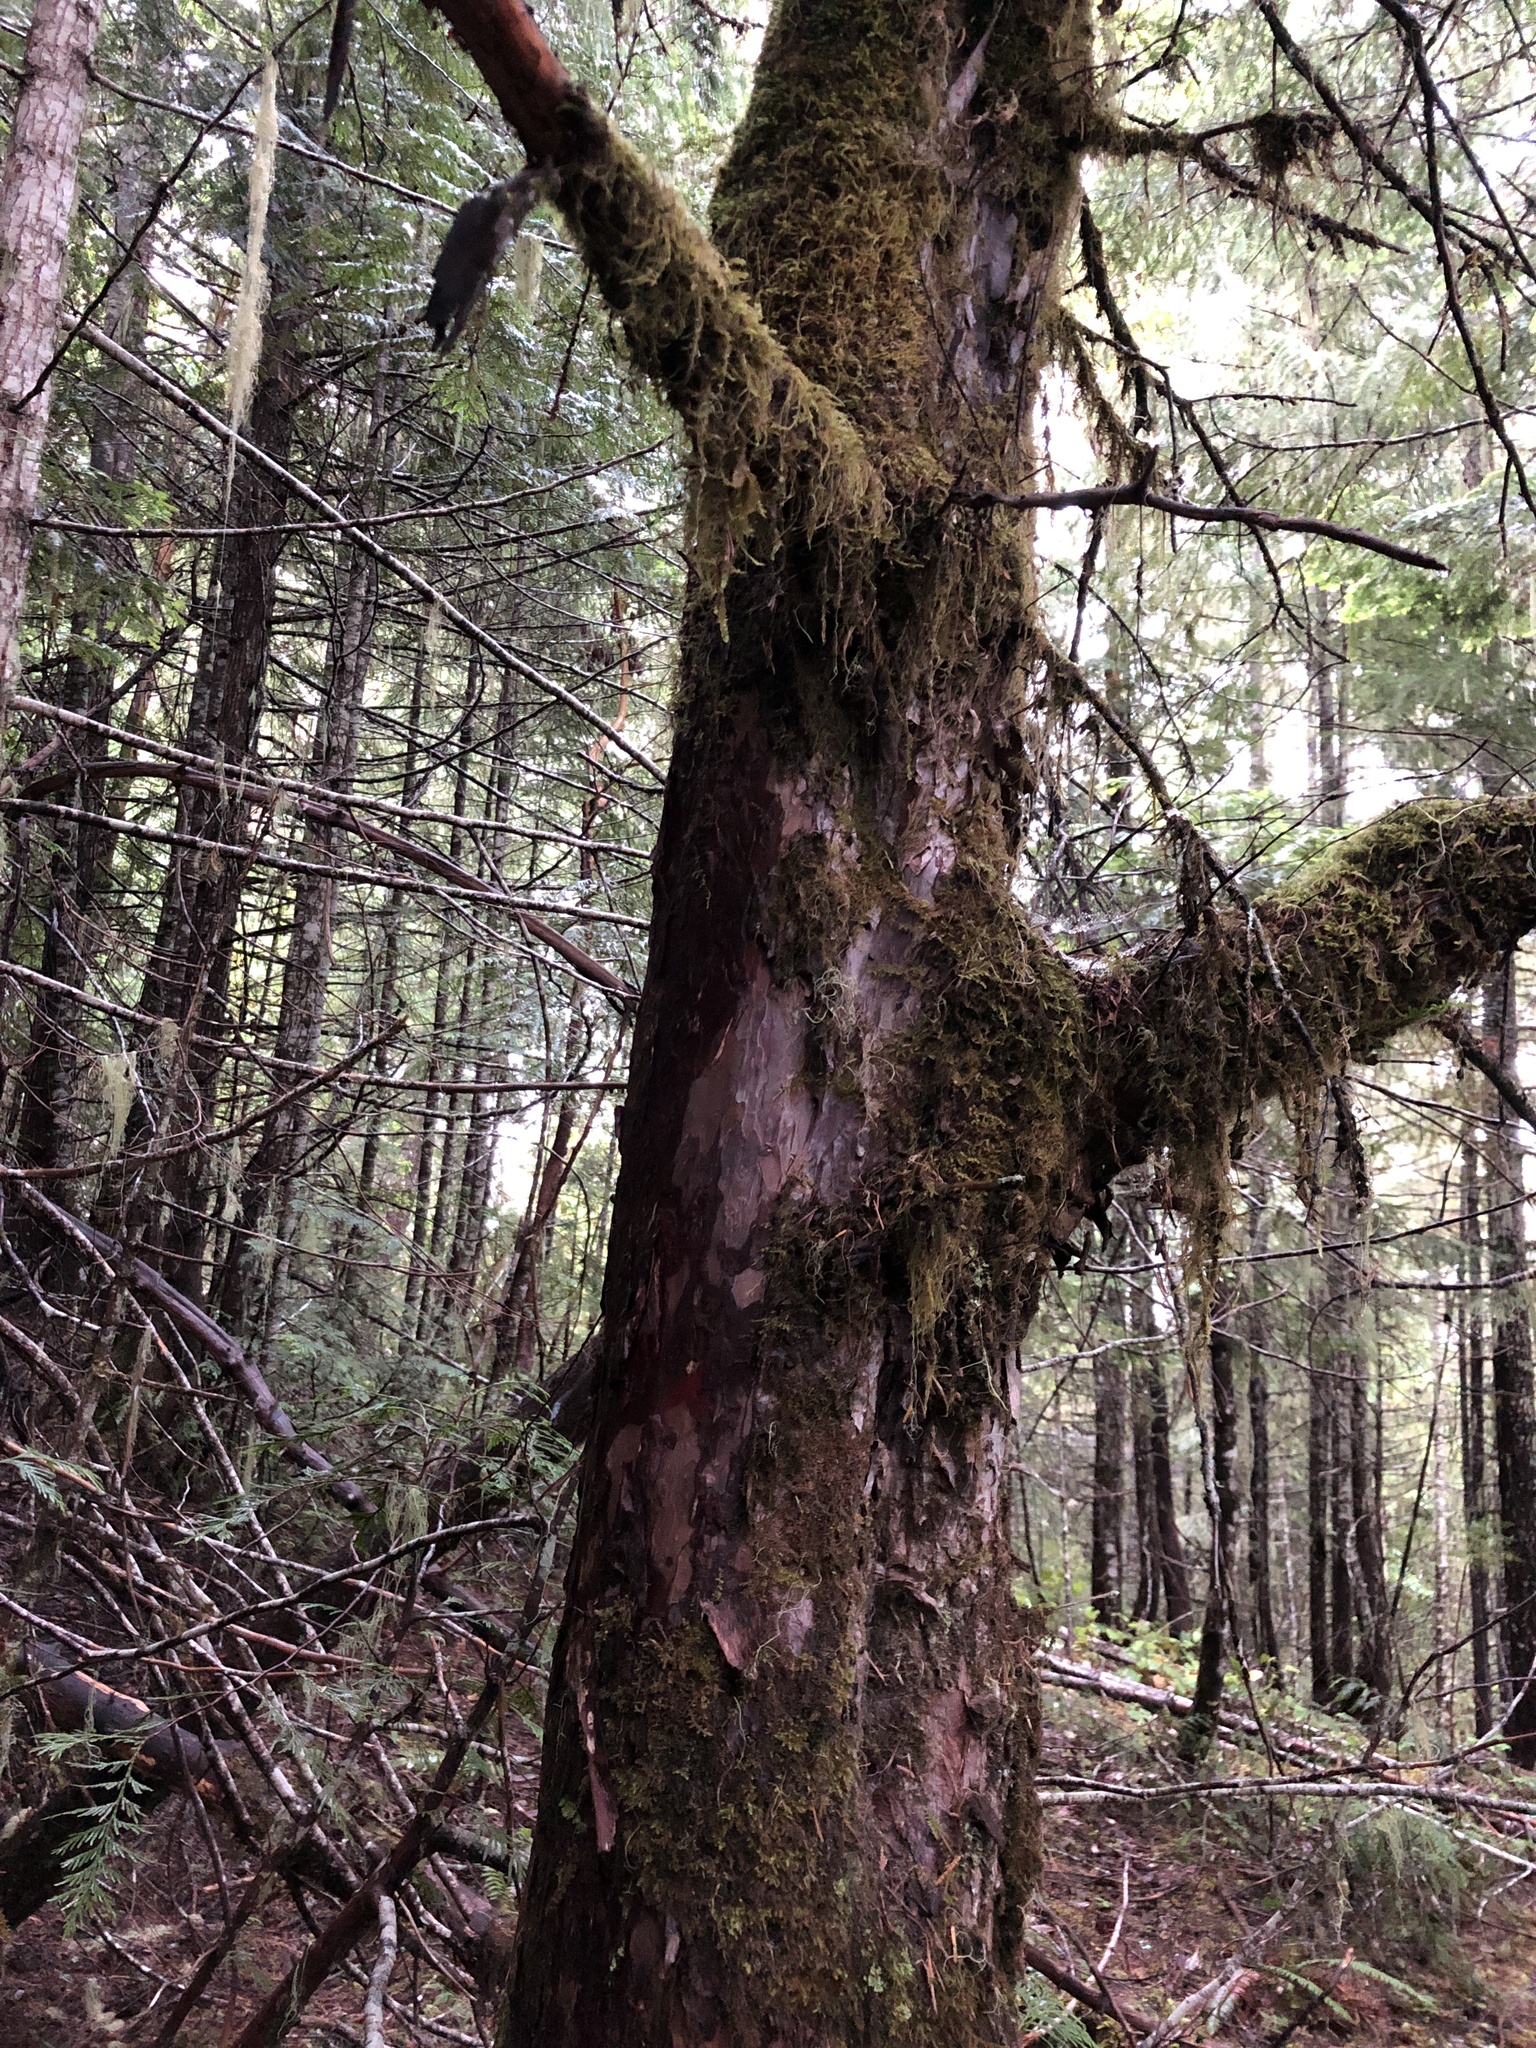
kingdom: Plantae
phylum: Tracheophyta
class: Pinopsida
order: Pinales
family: Taxaceae
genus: Taxus
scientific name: Taxus brevifolia
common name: Pacific yew
